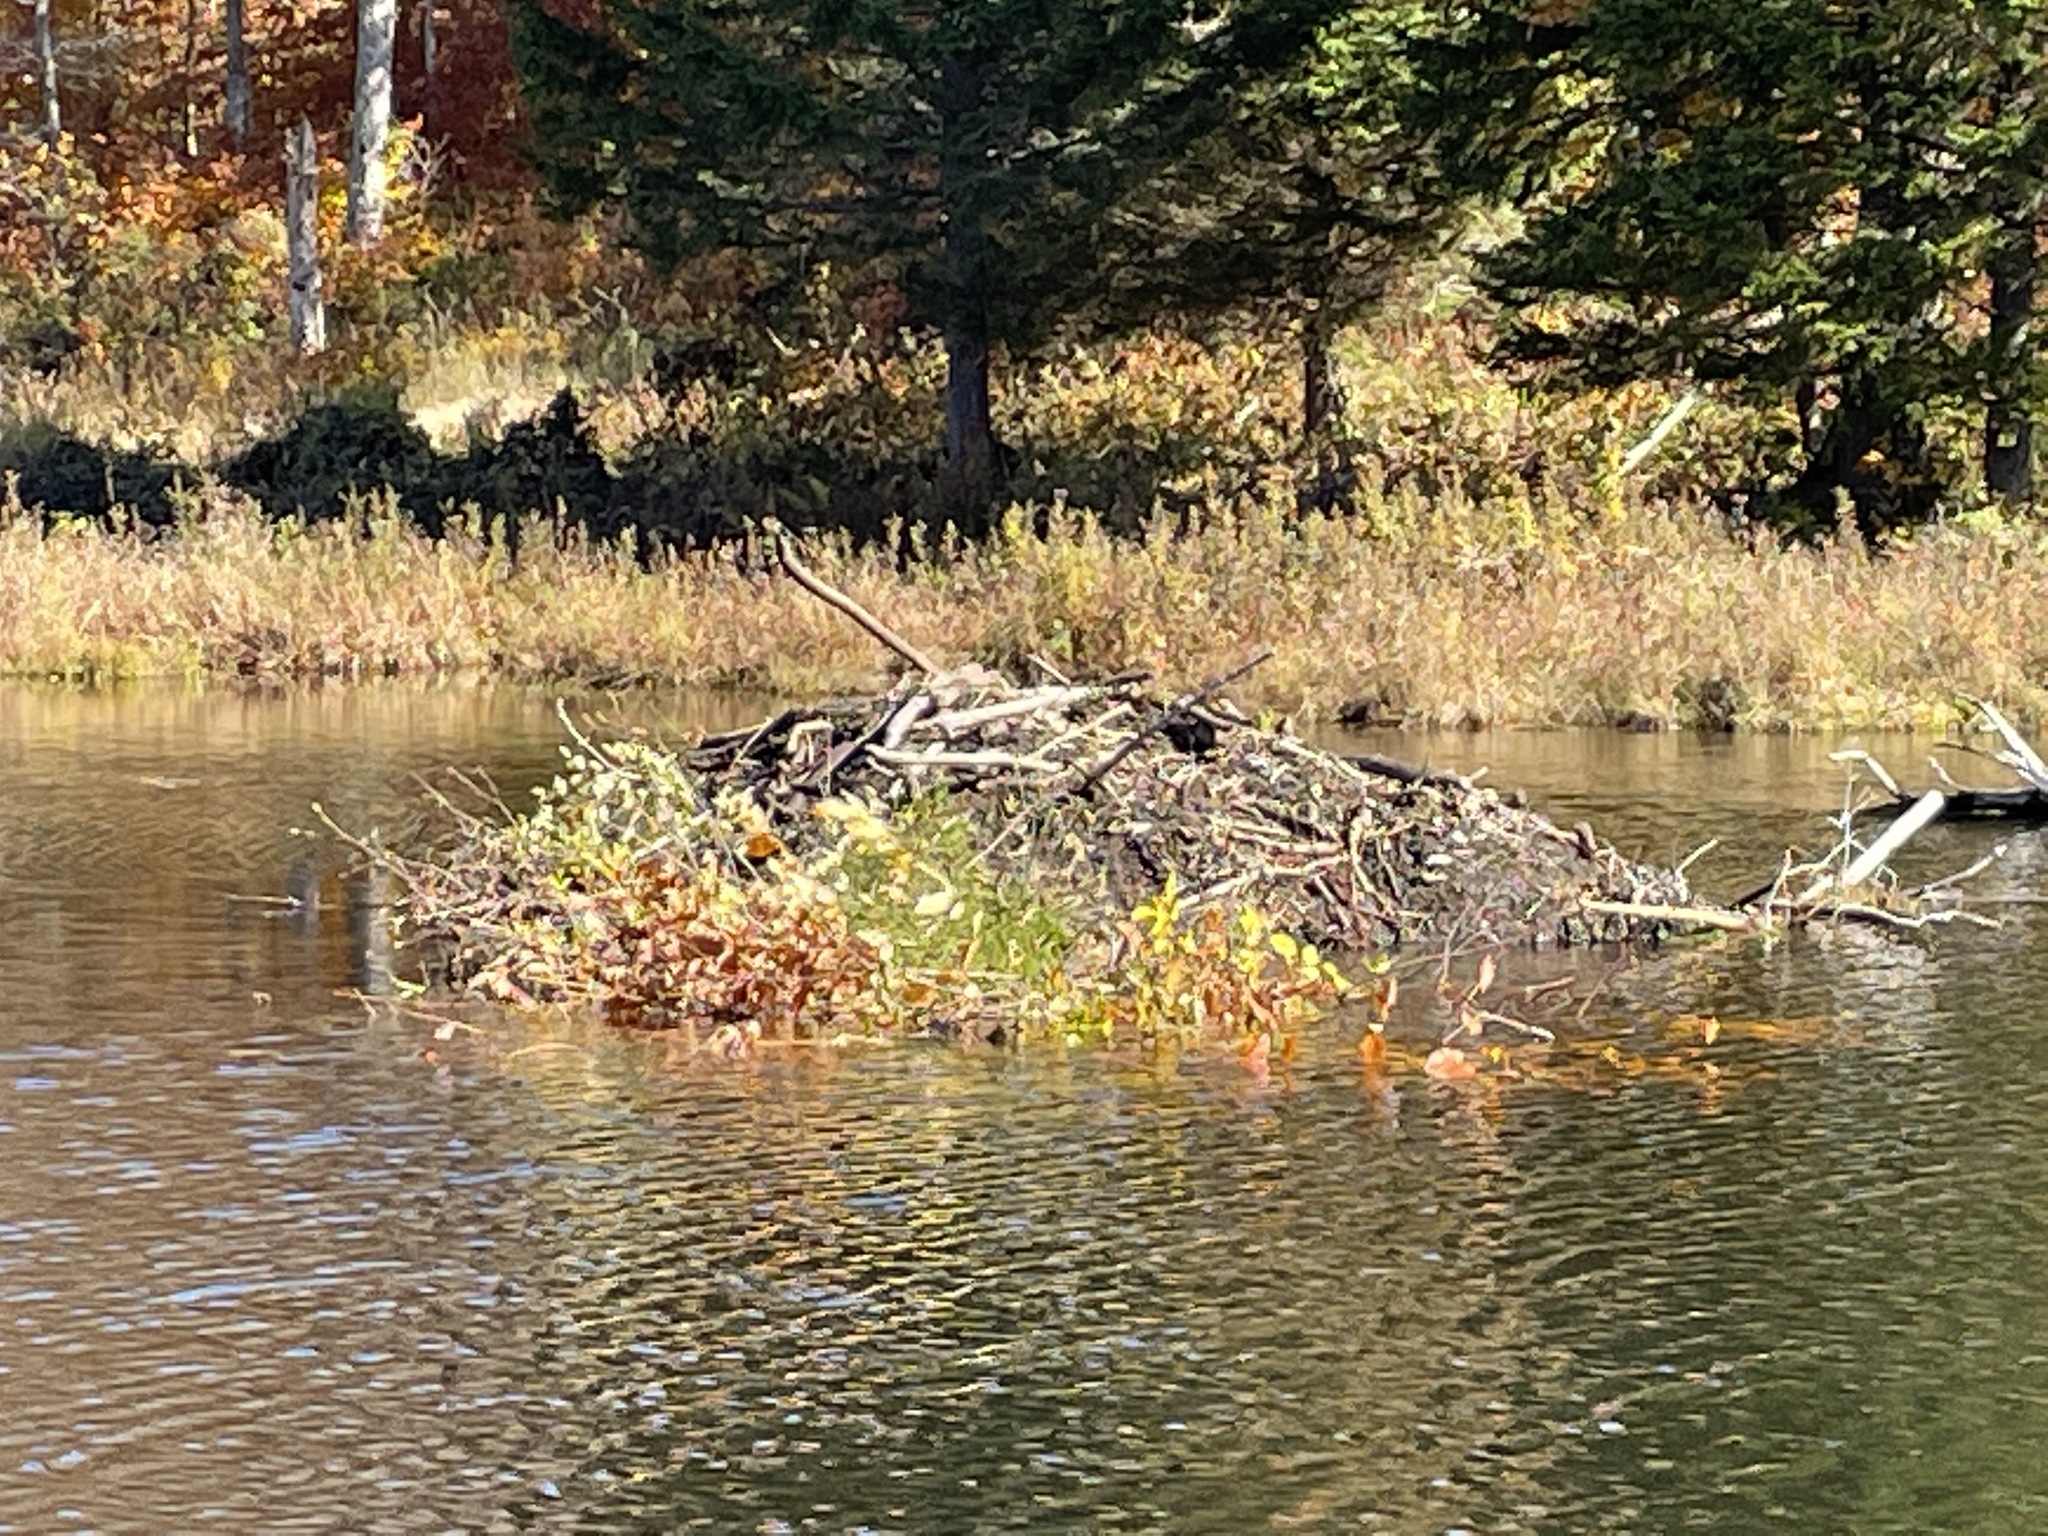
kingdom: Animalia
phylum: Chordata
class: Mammalia
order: Rodentia
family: Castoridae
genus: Castor
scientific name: Castor canadensis
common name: American beaver
